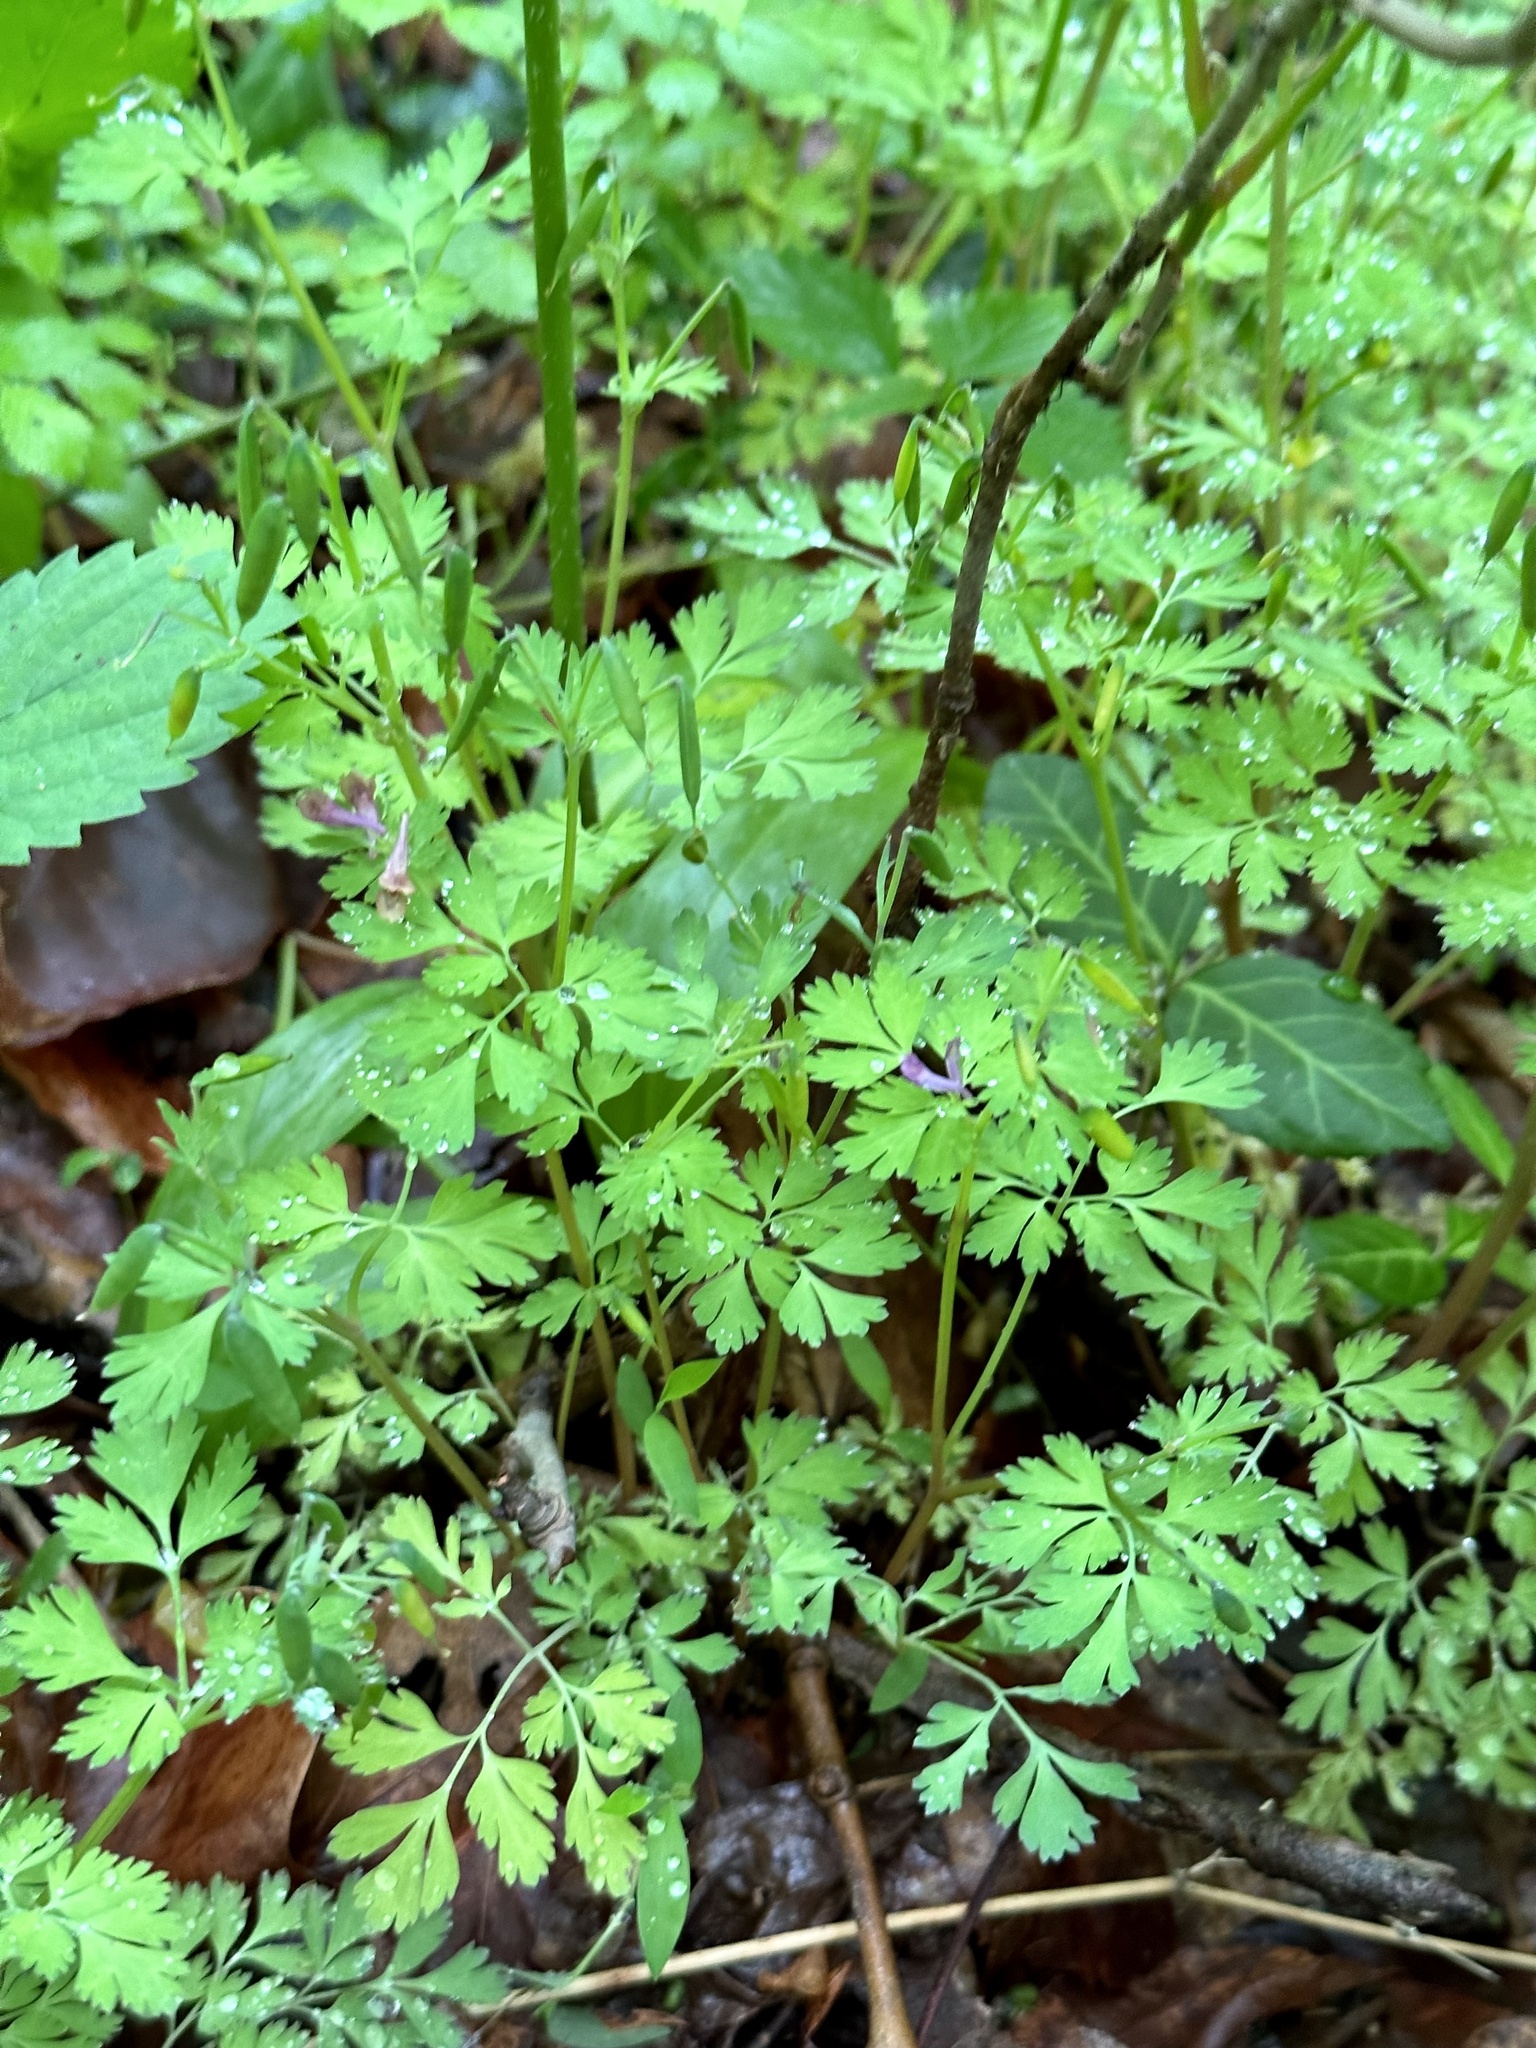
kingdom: Plantae
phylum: Tracheophyta
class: Magnoliopsida
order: Ranunculales
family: Papaveraceae
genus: Corydalis
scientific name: Corydalis incisa
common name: Incised fumewort
